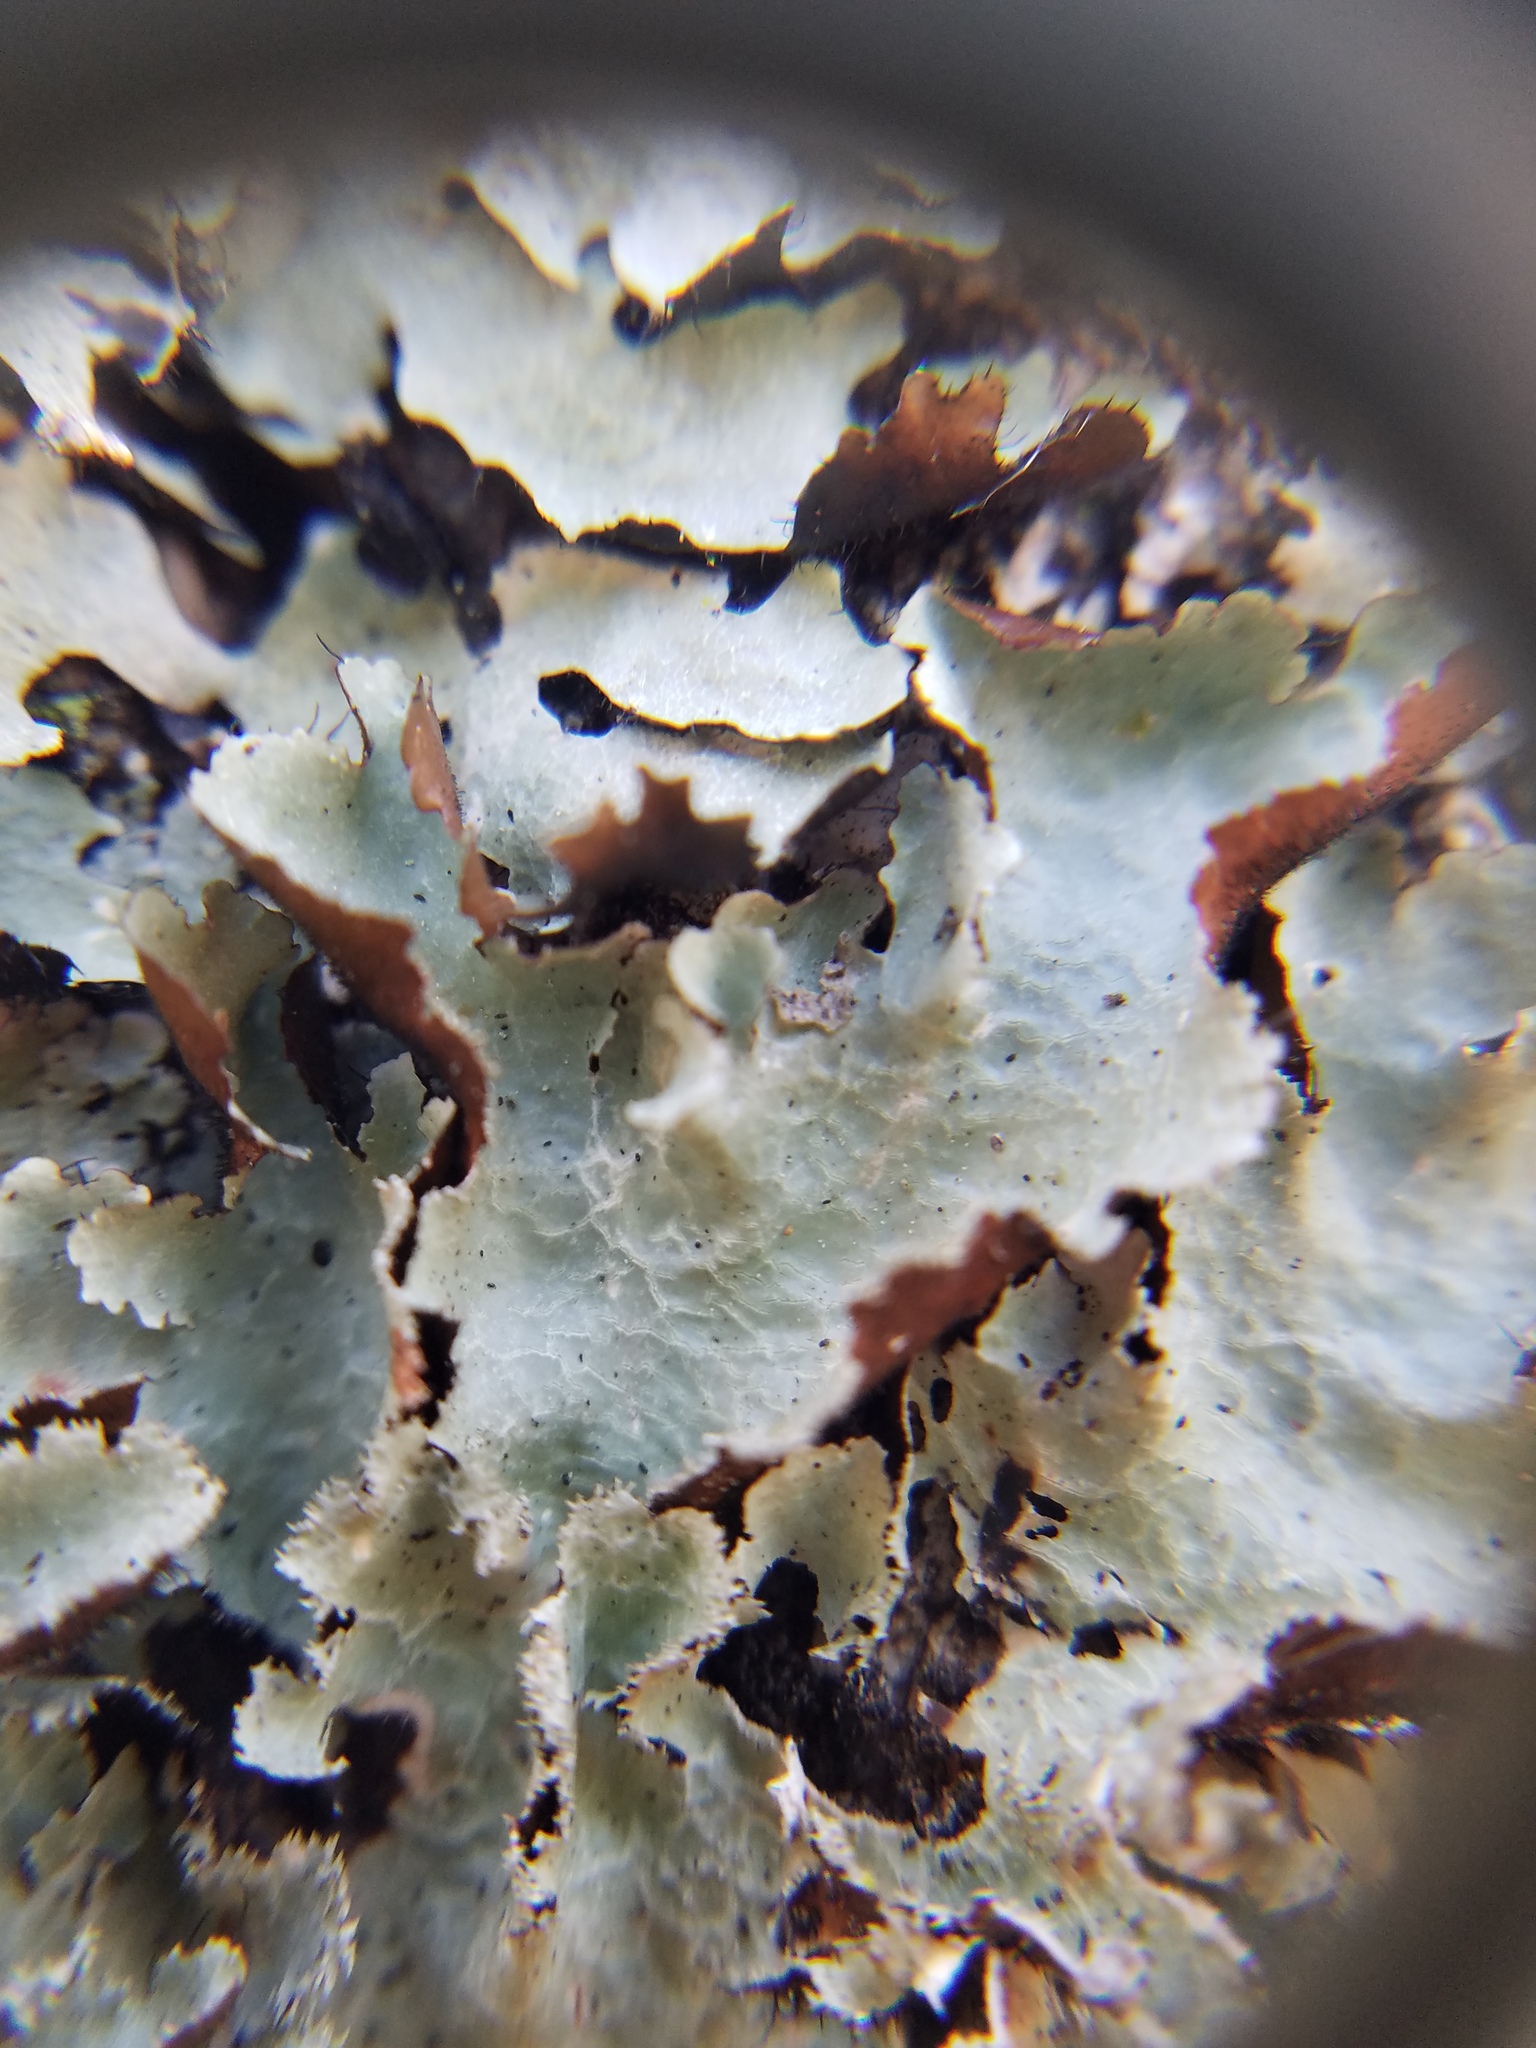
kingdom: Fungi
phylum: Ascomycota
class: Lecanoromycetes
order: Lecanorales
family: Parmeliaceae
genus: Parmotrema
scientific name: Parmotrema neotropicum
